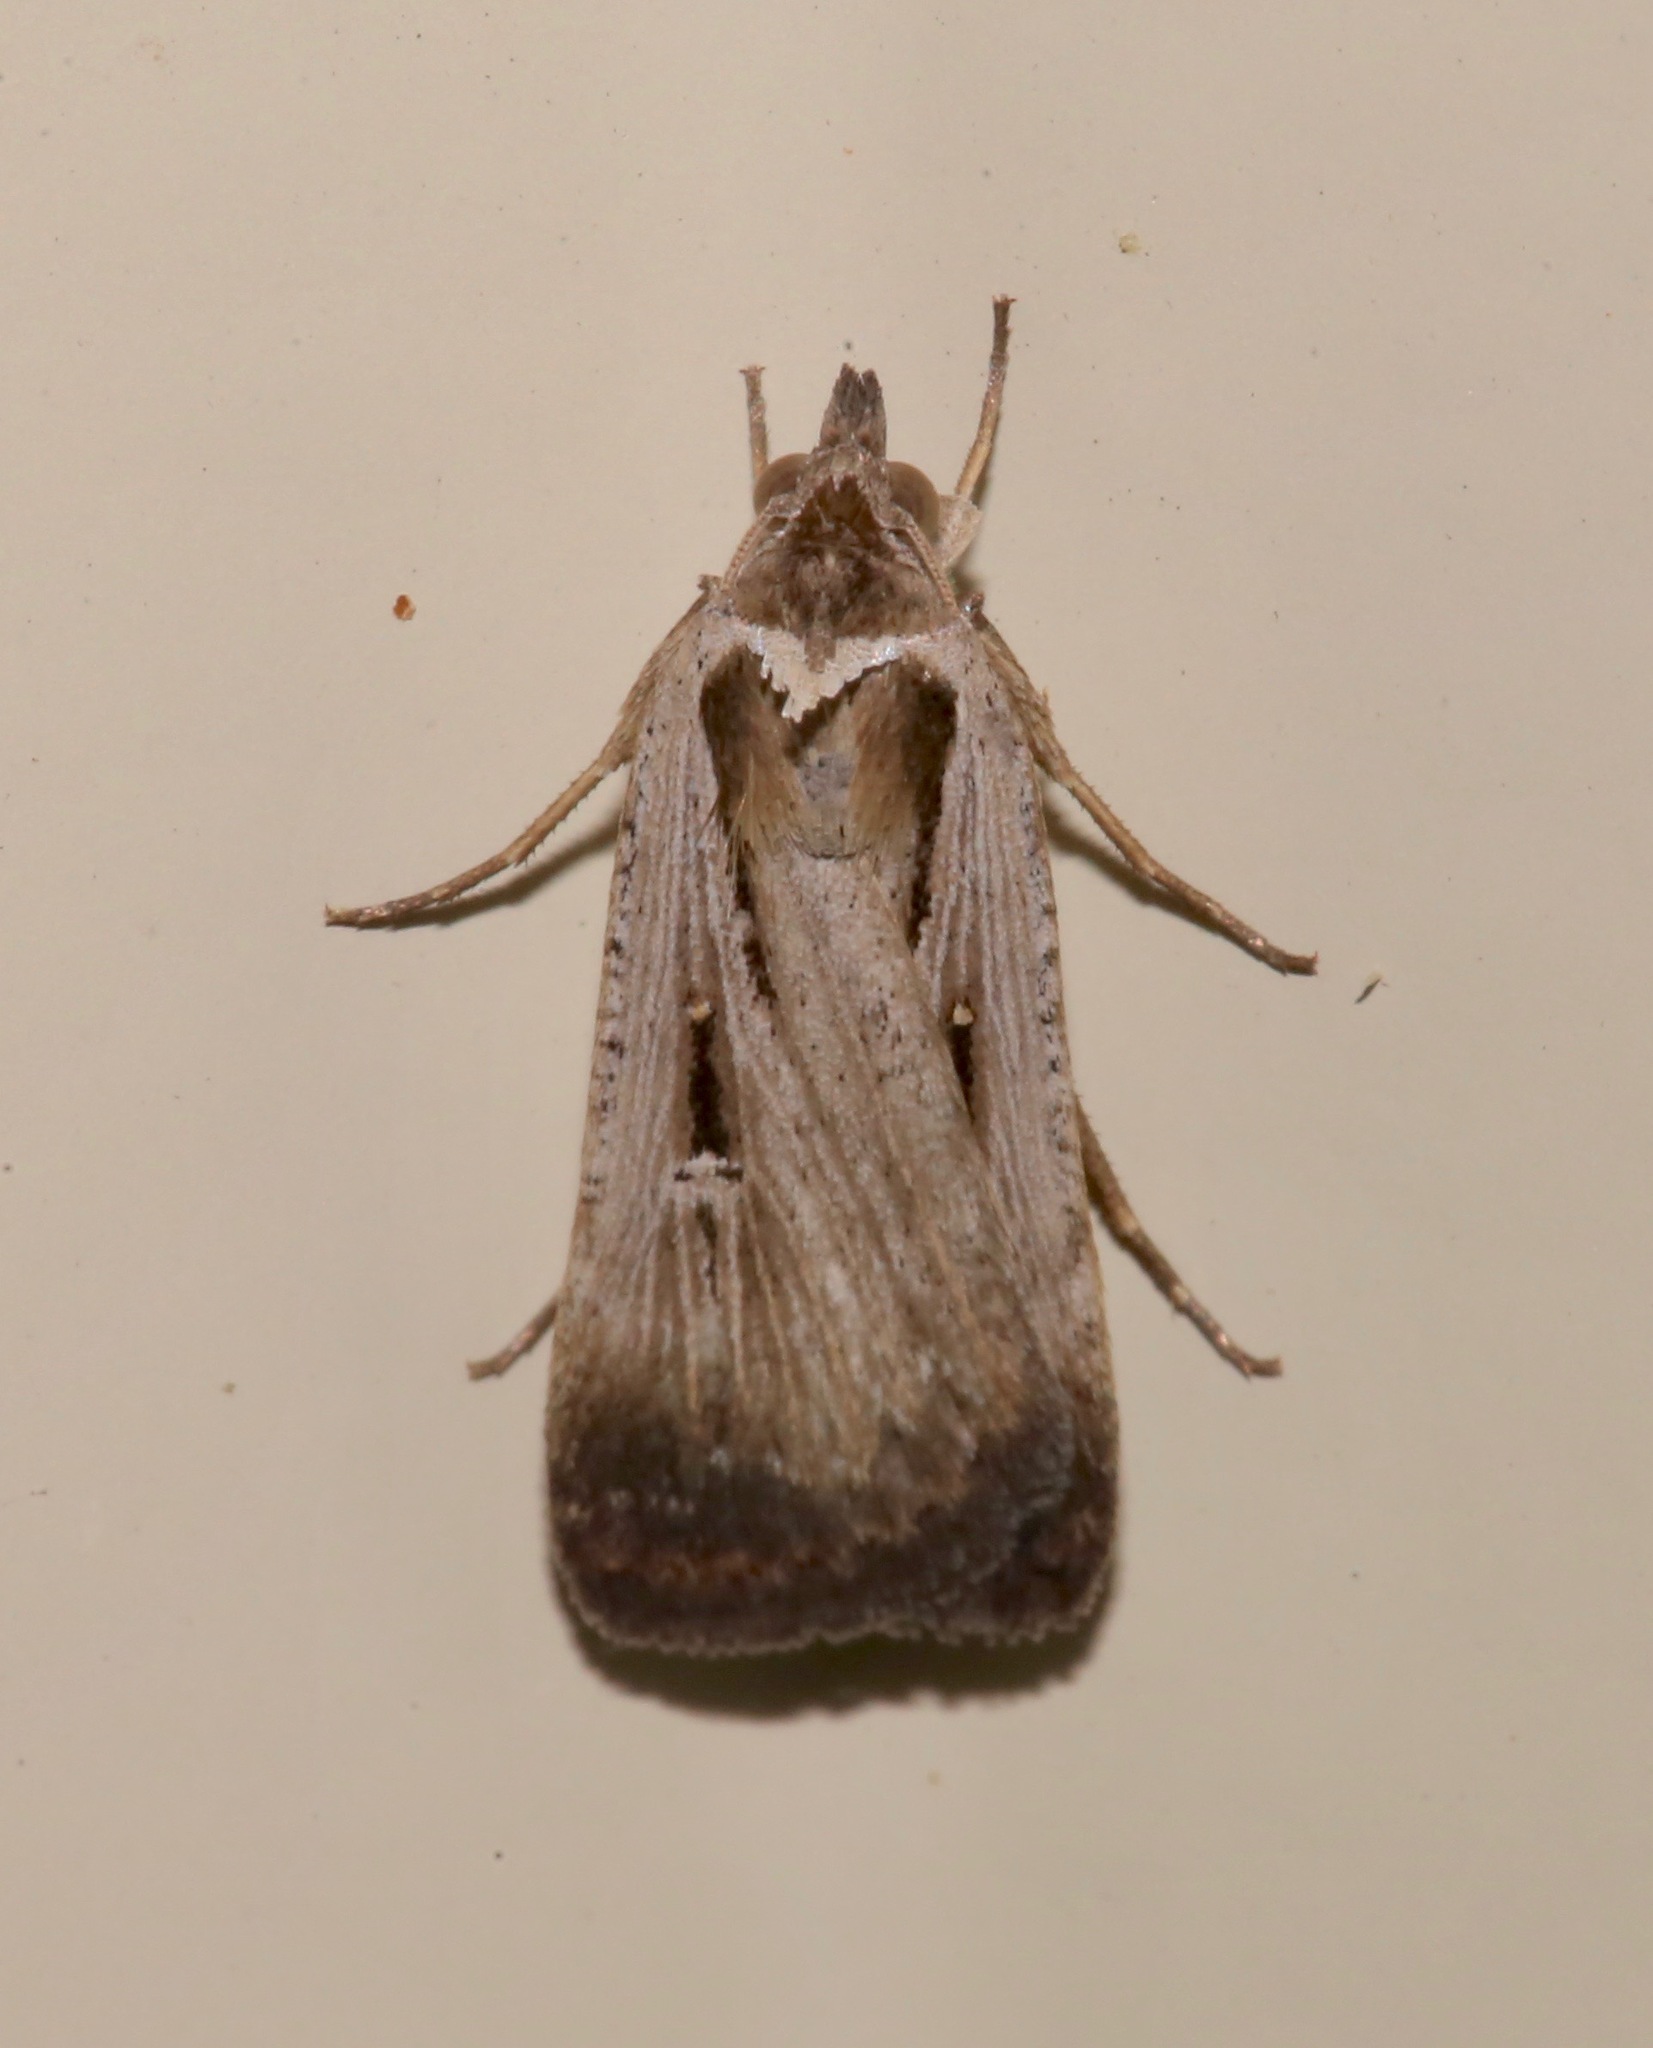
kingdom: Animalia
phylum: Arthropoda
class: Insecta
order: Lepidoptera
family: Noctuidae
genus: Tathorhynchus
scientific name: Tathorhynchus exsiccata
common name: Levant blackneck moth
